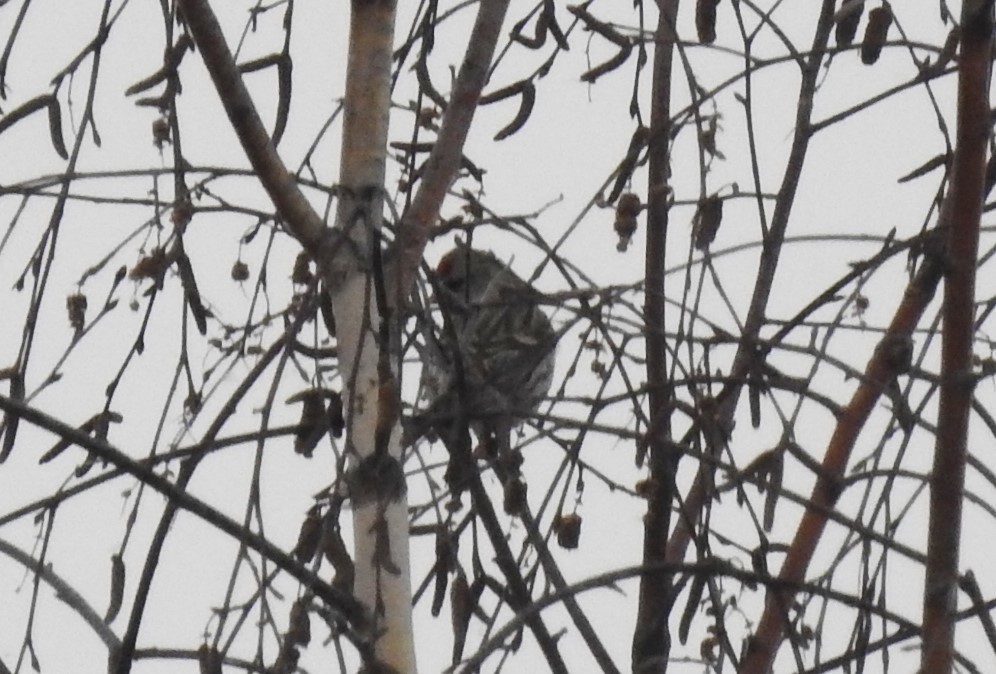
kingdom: Animalia
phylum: Chordata
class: Aves
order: Passeriformes
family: Fringillidae
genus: Acanthis
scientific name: Acanthis flammea
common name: Common redpoll
